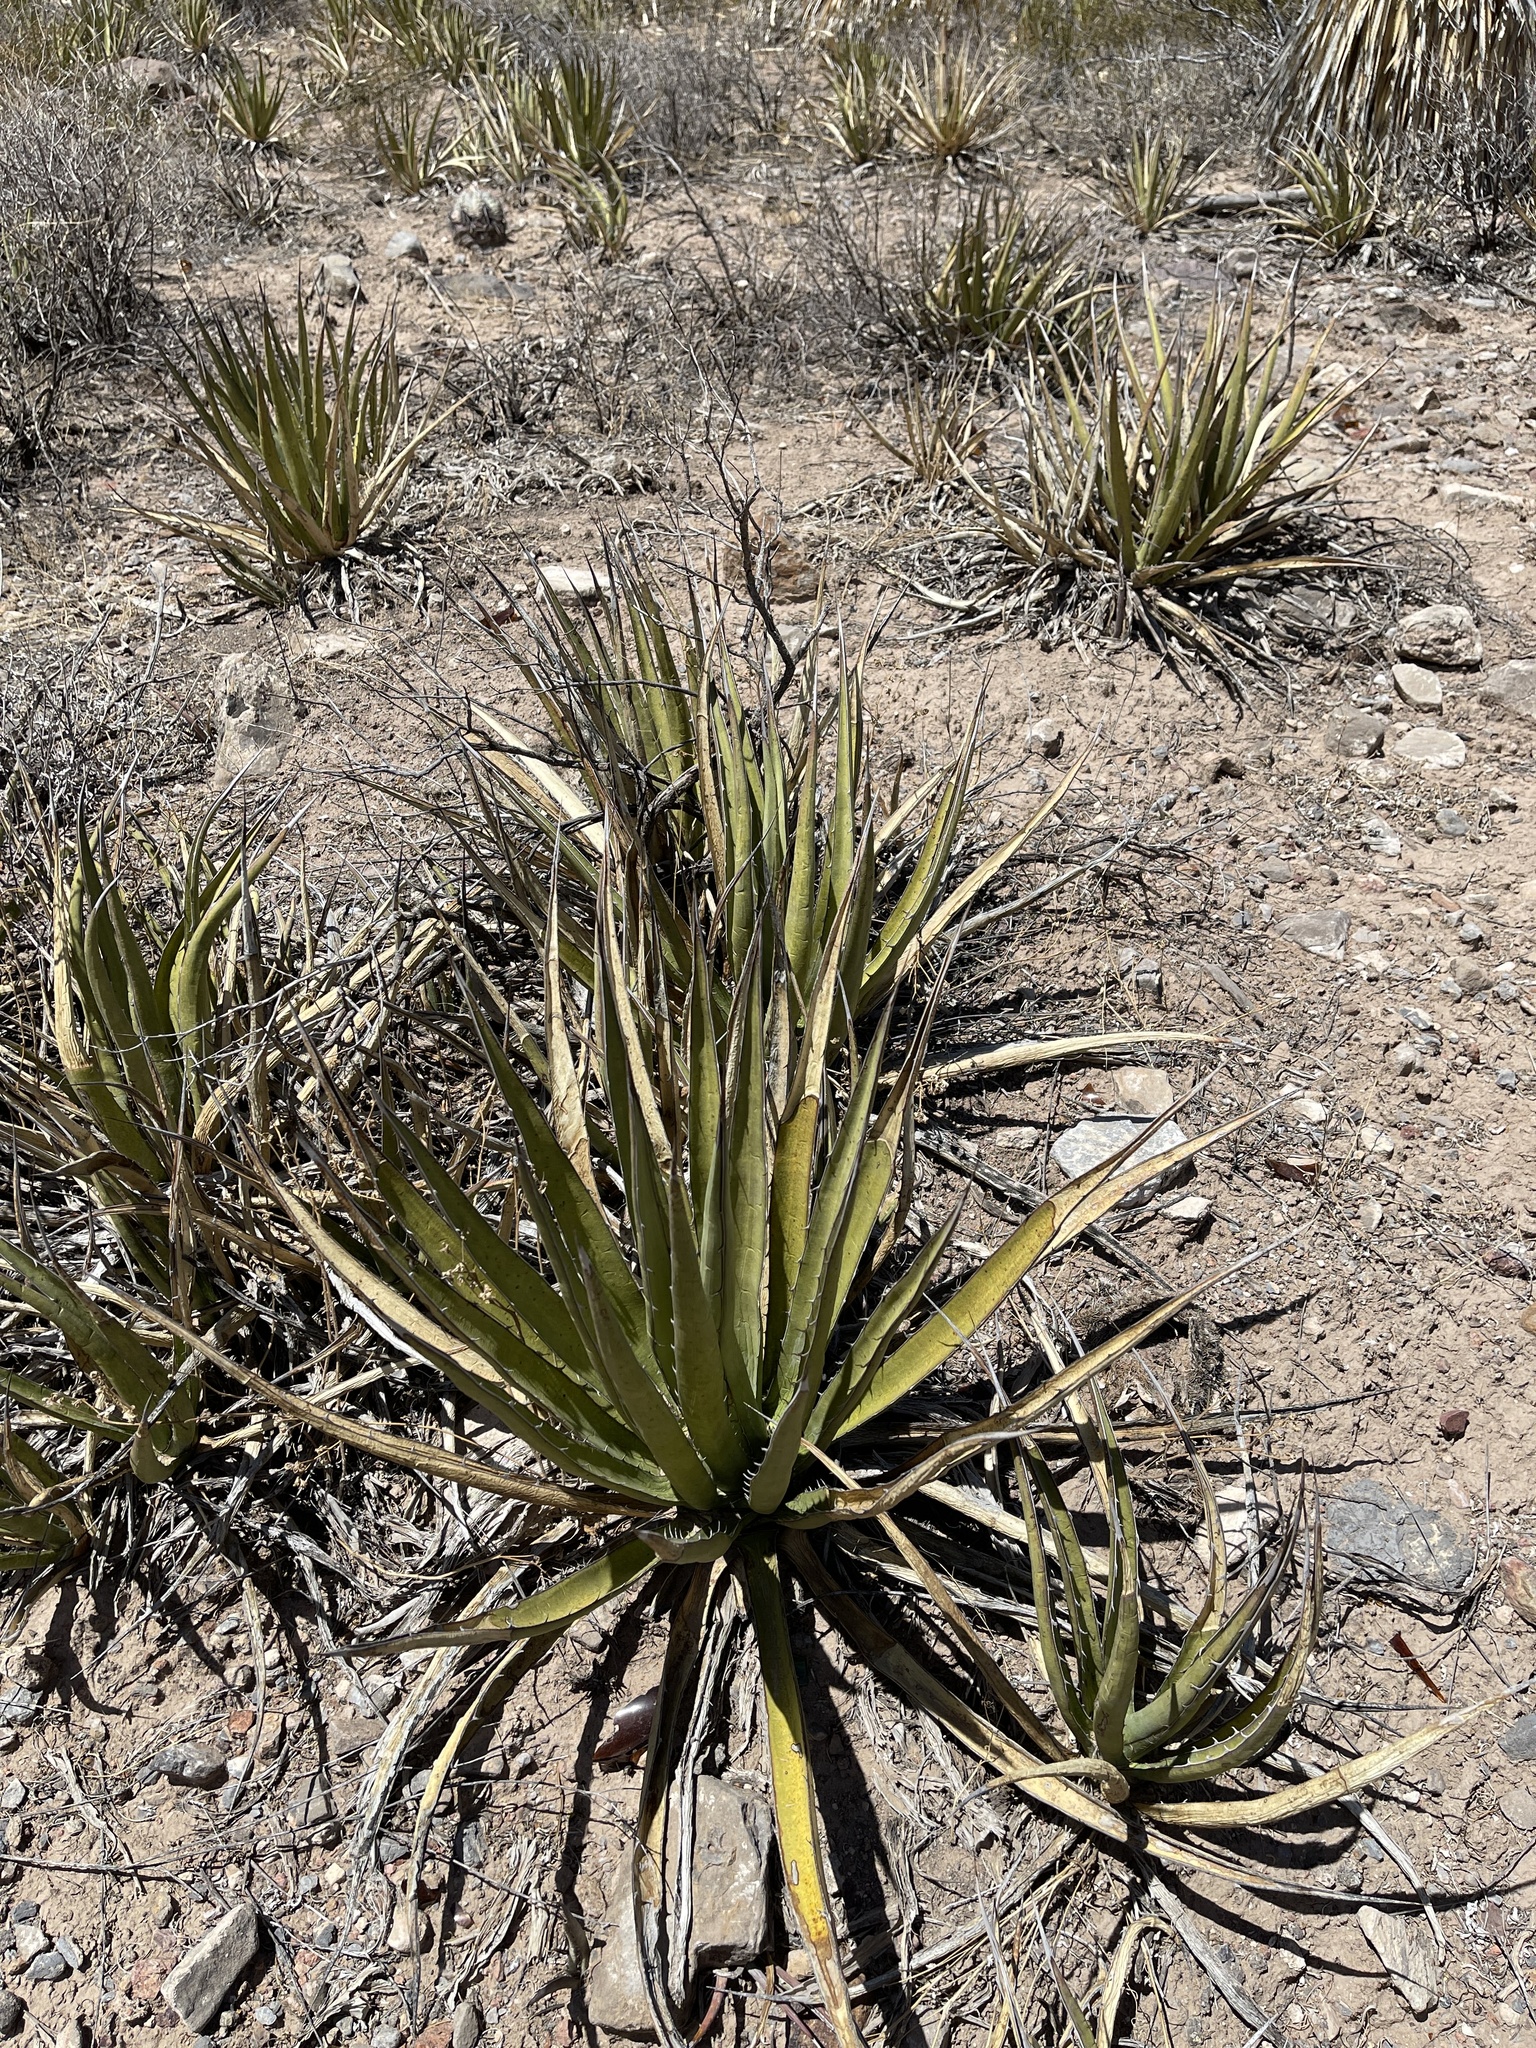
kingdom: Plantae
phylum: Tracheophyta
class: Liliopsida
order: Asparagales
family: Asparagaceae
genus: Agave
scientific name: Agave lechuguilla
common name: Lecheguilla agave
